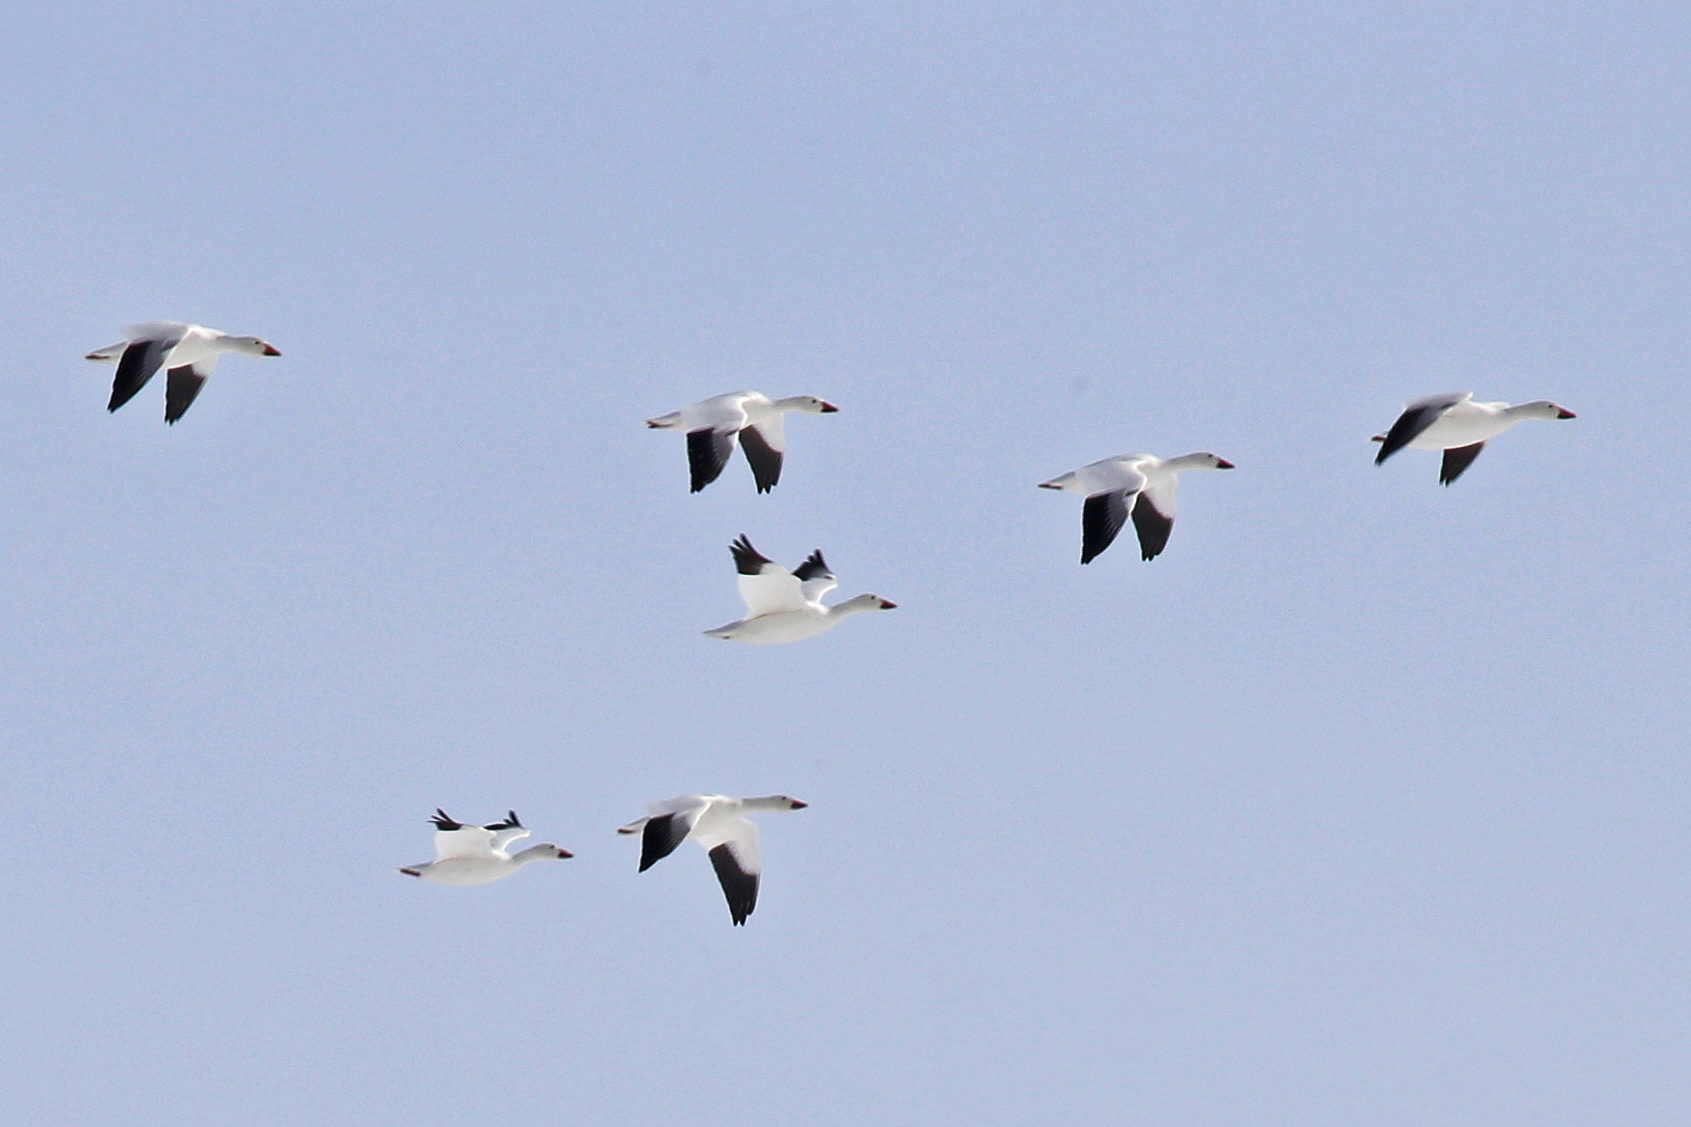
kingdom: Animalia
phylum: Chordata
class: Aves
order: Anseriformes
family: Anatidae
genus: Anser
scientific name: Anser caerulescens
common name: Snow goose
